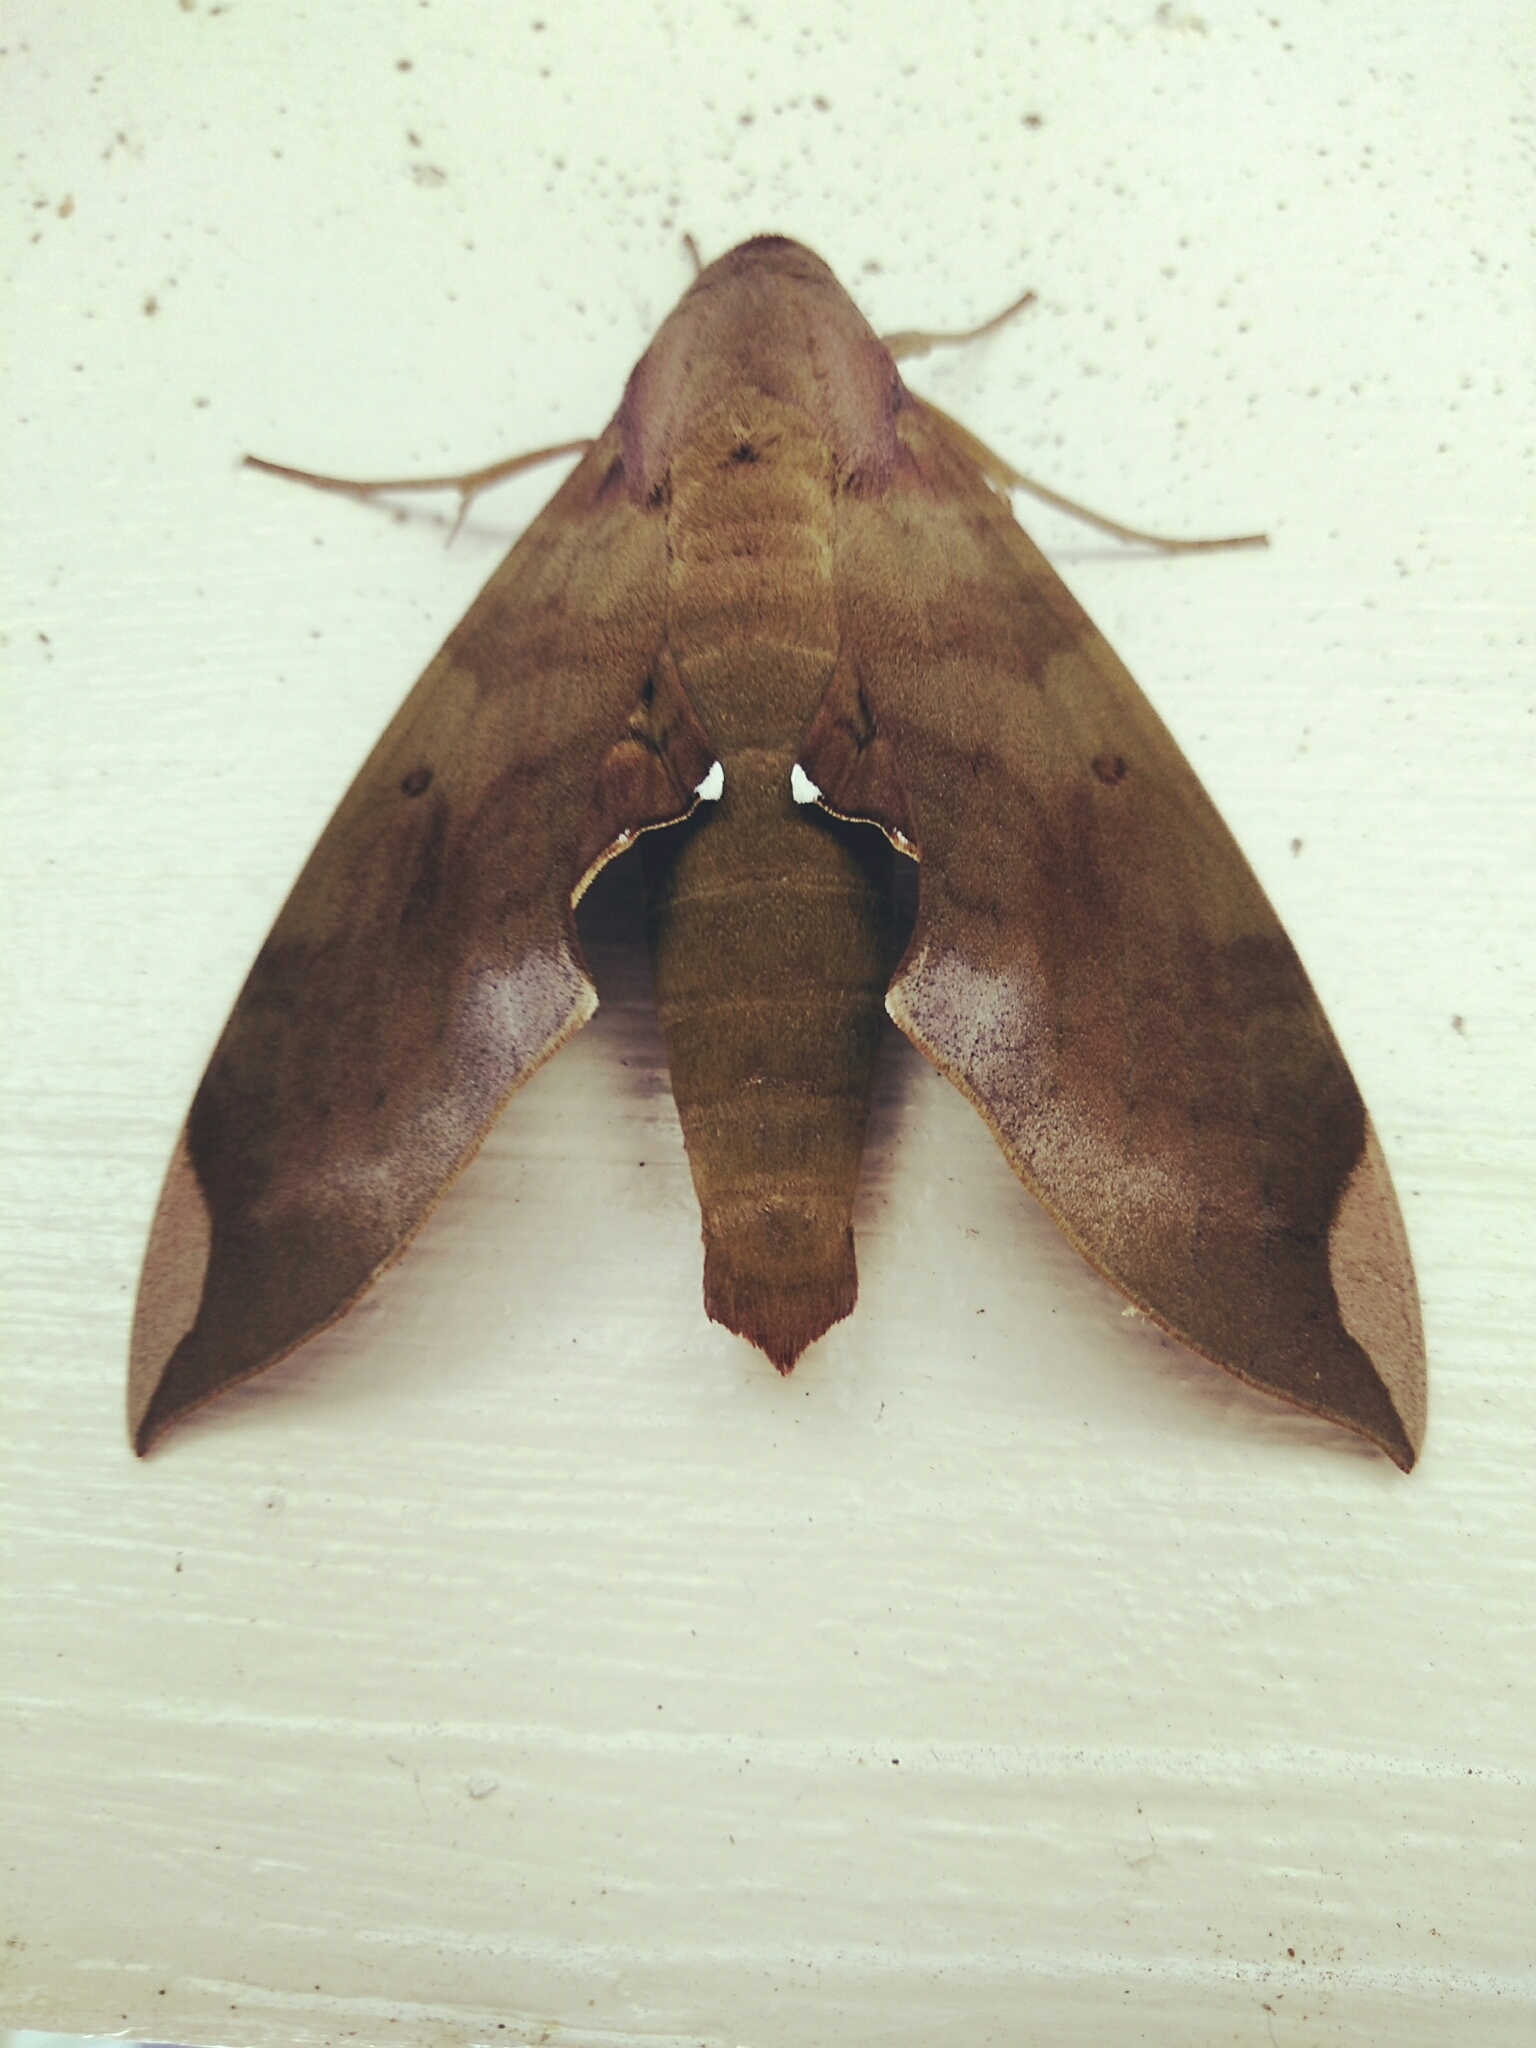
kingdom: Animalia
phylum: Arthropoda
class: Insecta
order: Lepidoptera
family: Sphingidae
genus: Pachylia
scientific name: Pachylia ficus
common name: Fig sphinx
